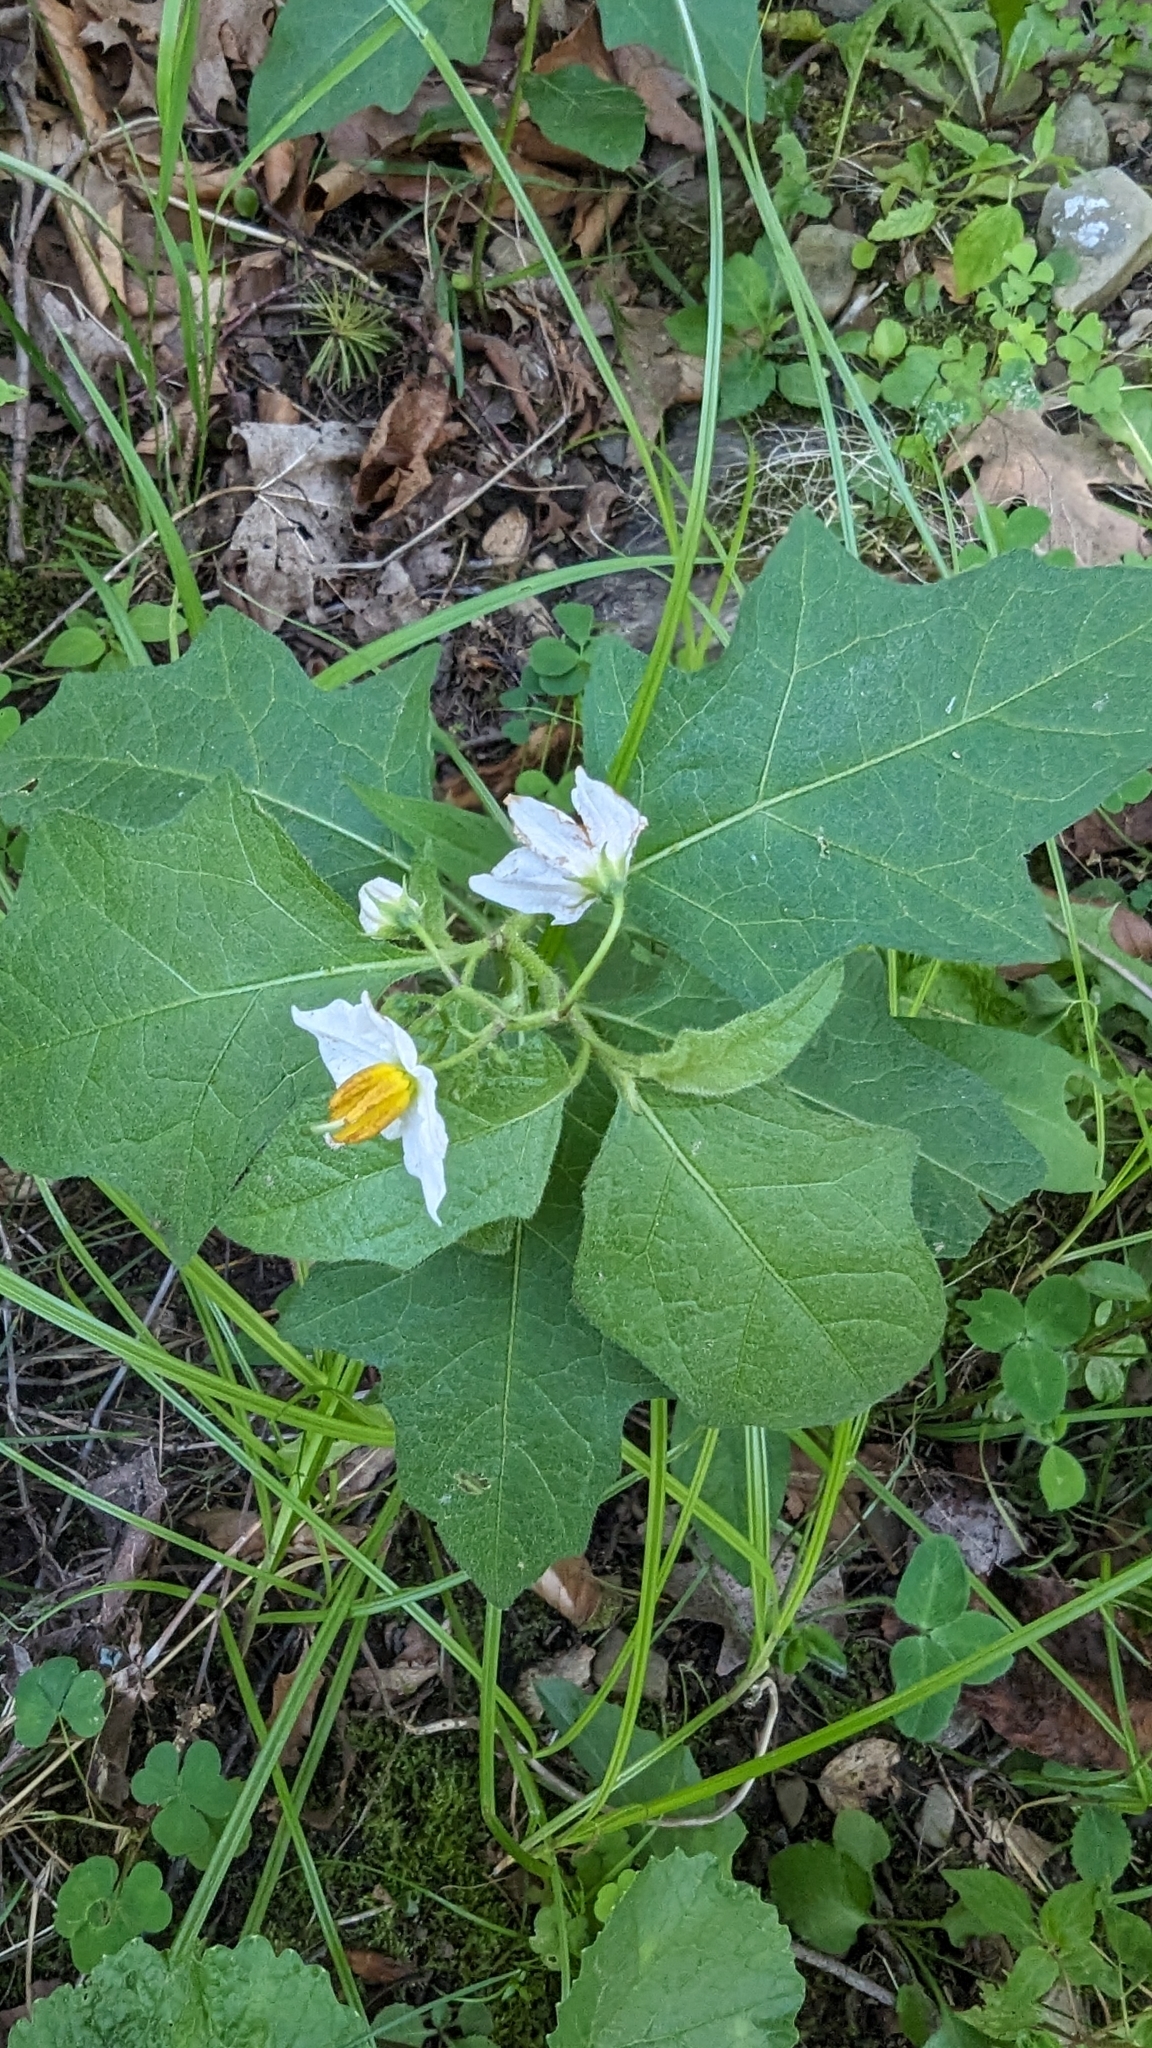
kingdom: Plantae
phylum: Tracheophyta
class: Magnoliopsida
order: Solanales
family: Solanaceae
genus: Solanum
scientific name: Solanum carolinense
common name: Horse-nettle
